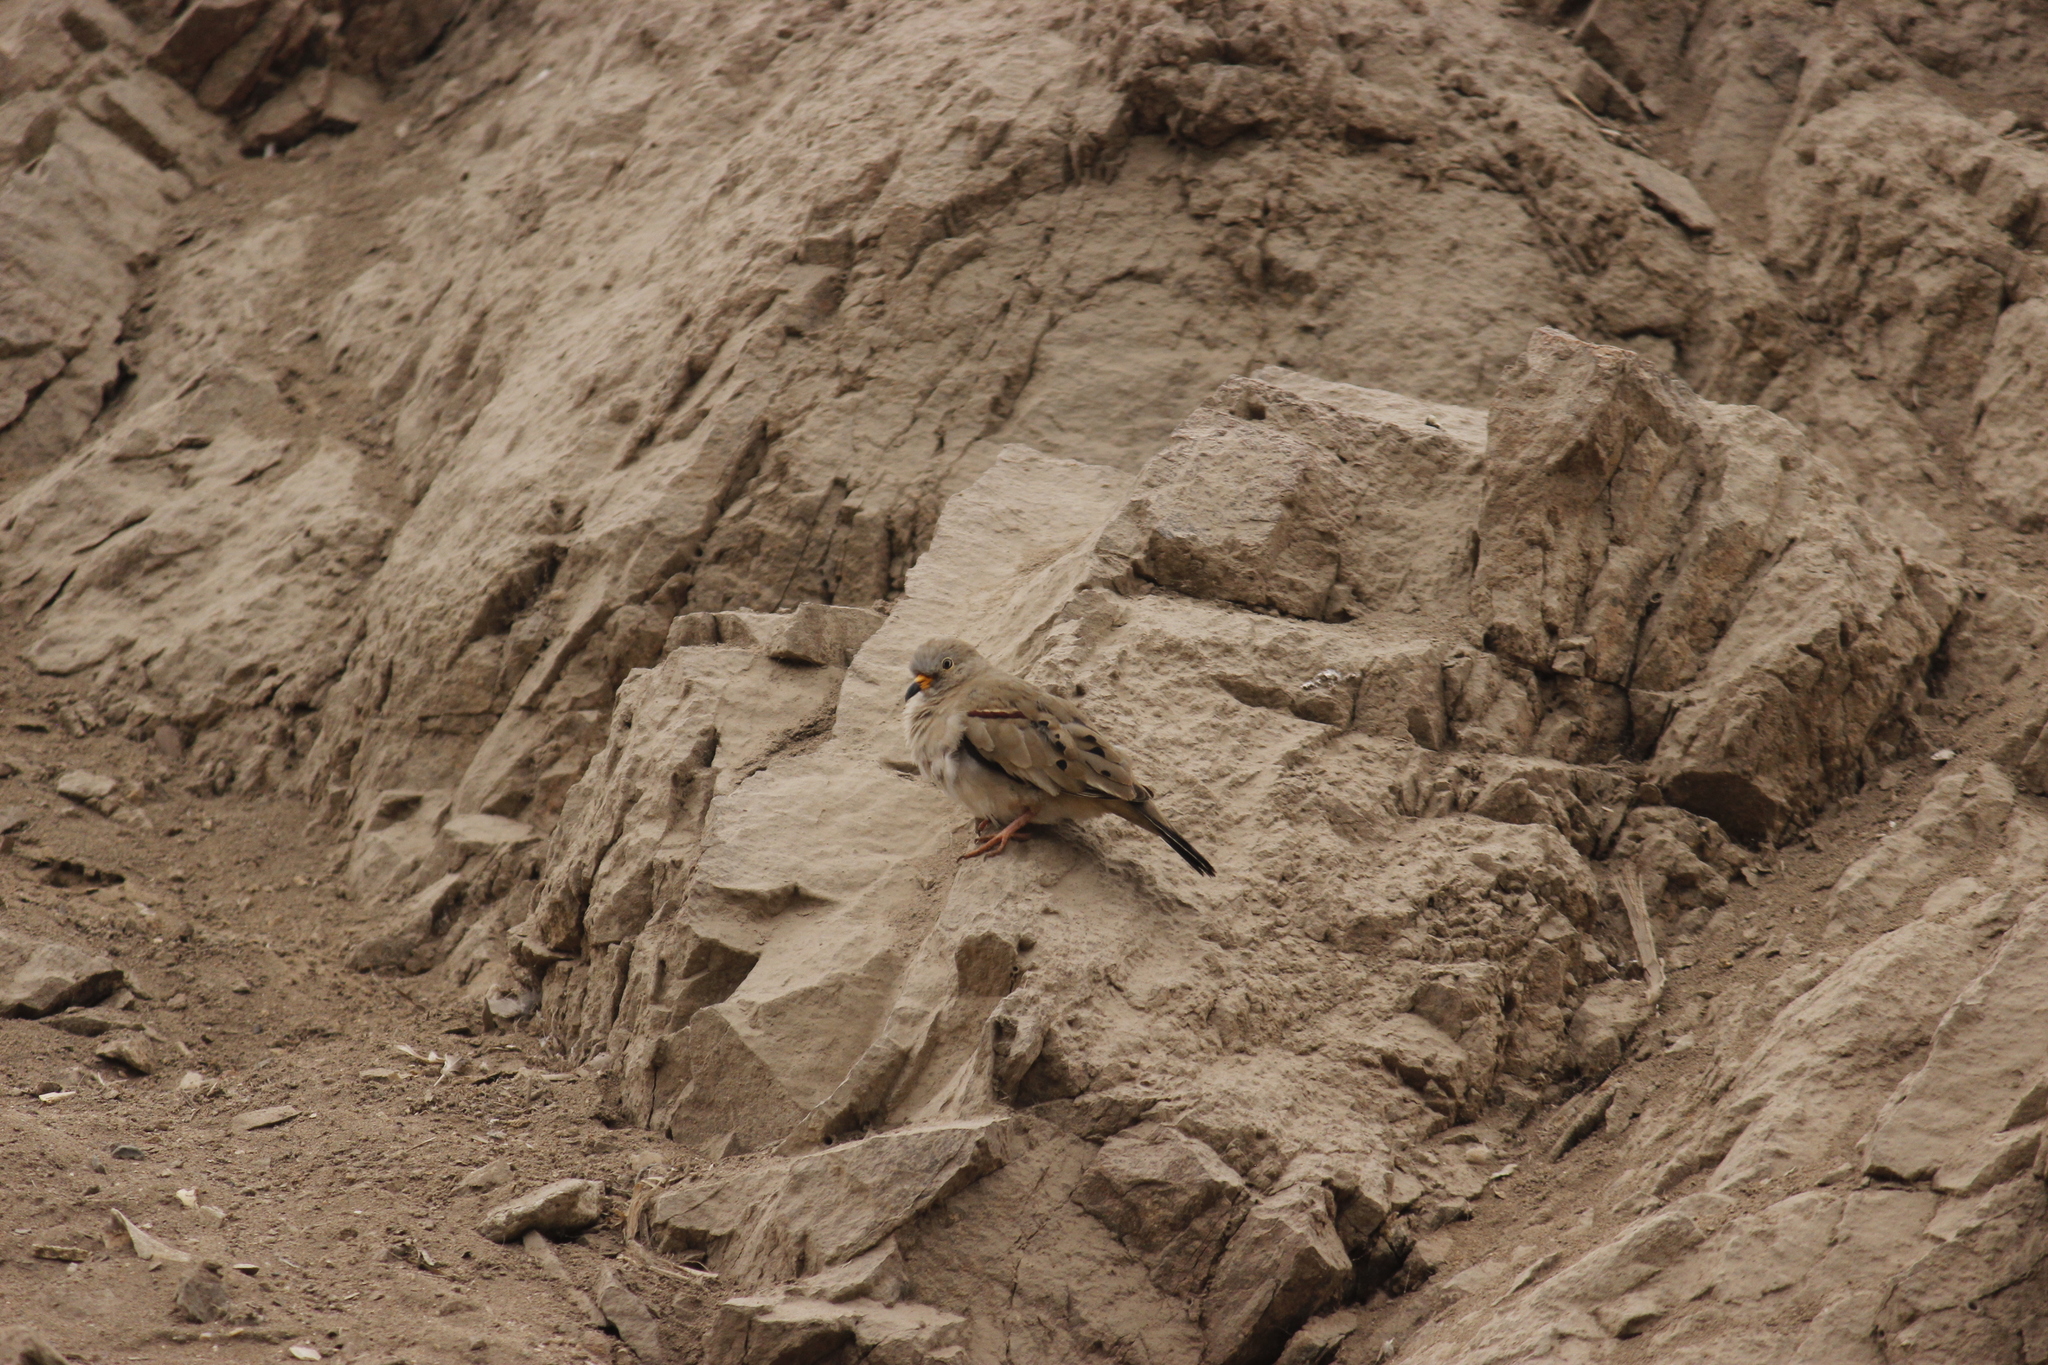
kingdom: Animalia
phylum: Chordata
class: Aves
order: Columbiformes
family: Columbidae
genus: Columbina
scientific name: Columbina cruziana
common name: Croaking ground dove
